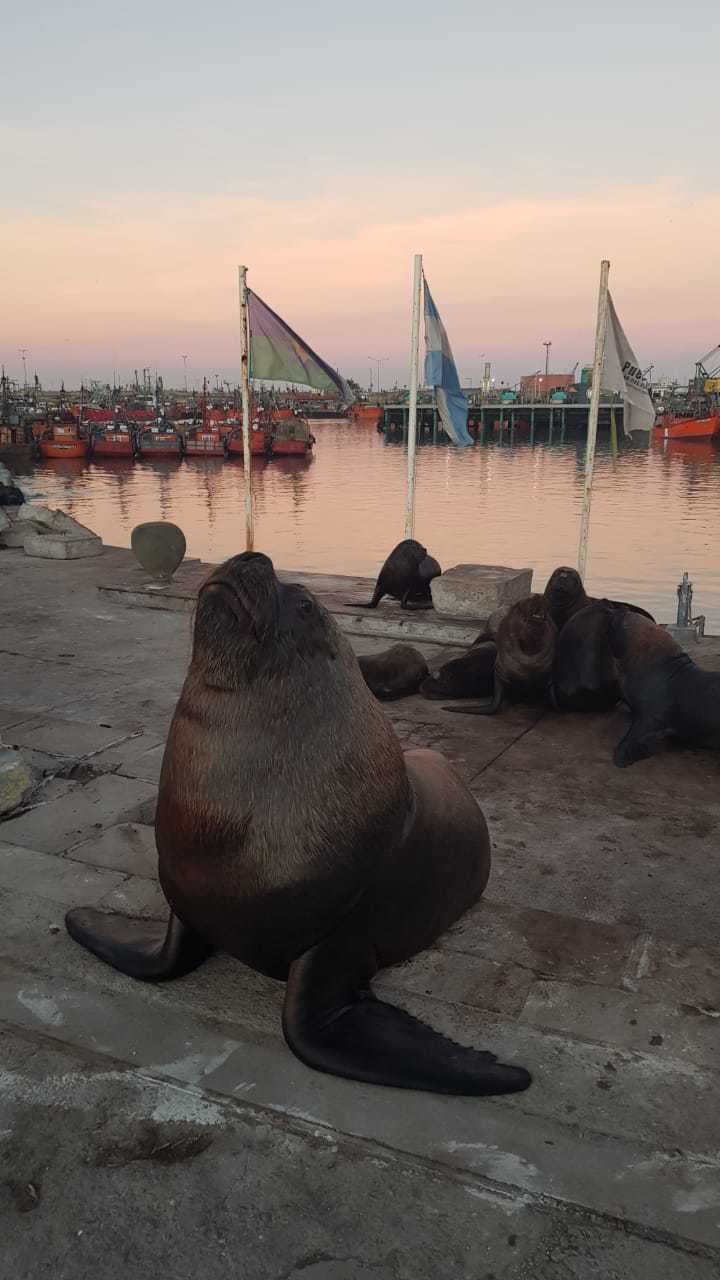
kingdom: Animalia
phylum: Chordata
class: Mammalia
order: Carnivora
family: Otariidae
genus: Otaria
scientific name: Otaria byronia
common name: South american sea lion
